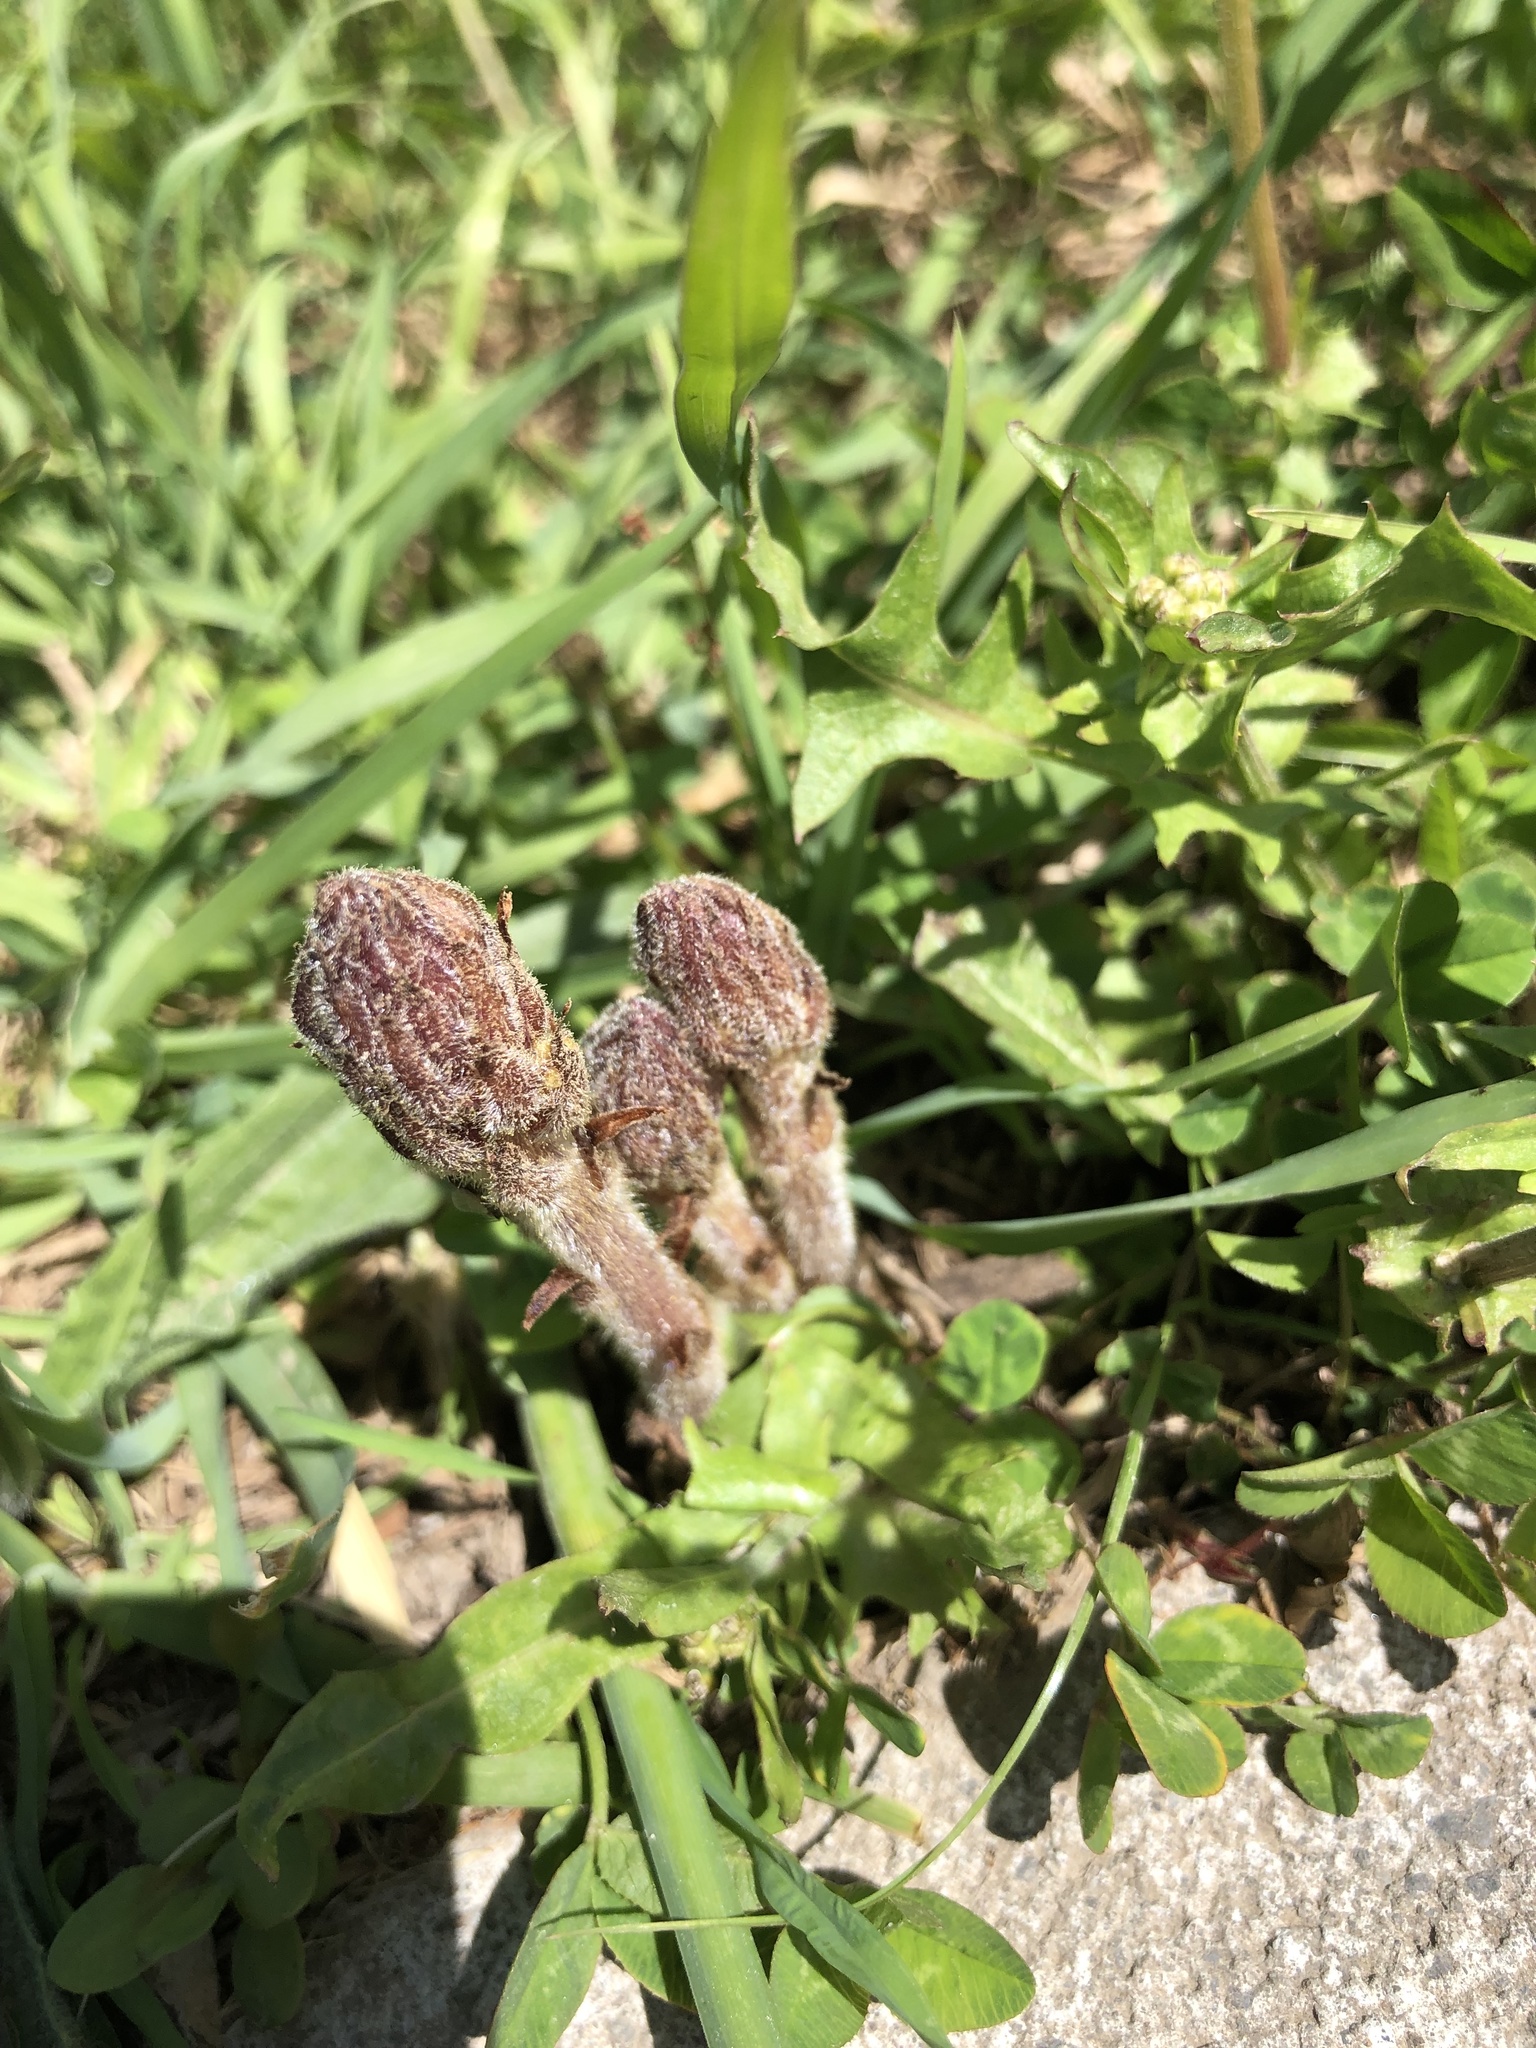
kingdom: Plantae
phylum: Tracheophyta
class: Magnoliopsida
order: Lamiales
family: Orobanchaceae
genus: Orobanche
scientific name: Orobanche minor
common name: Common broomrape
